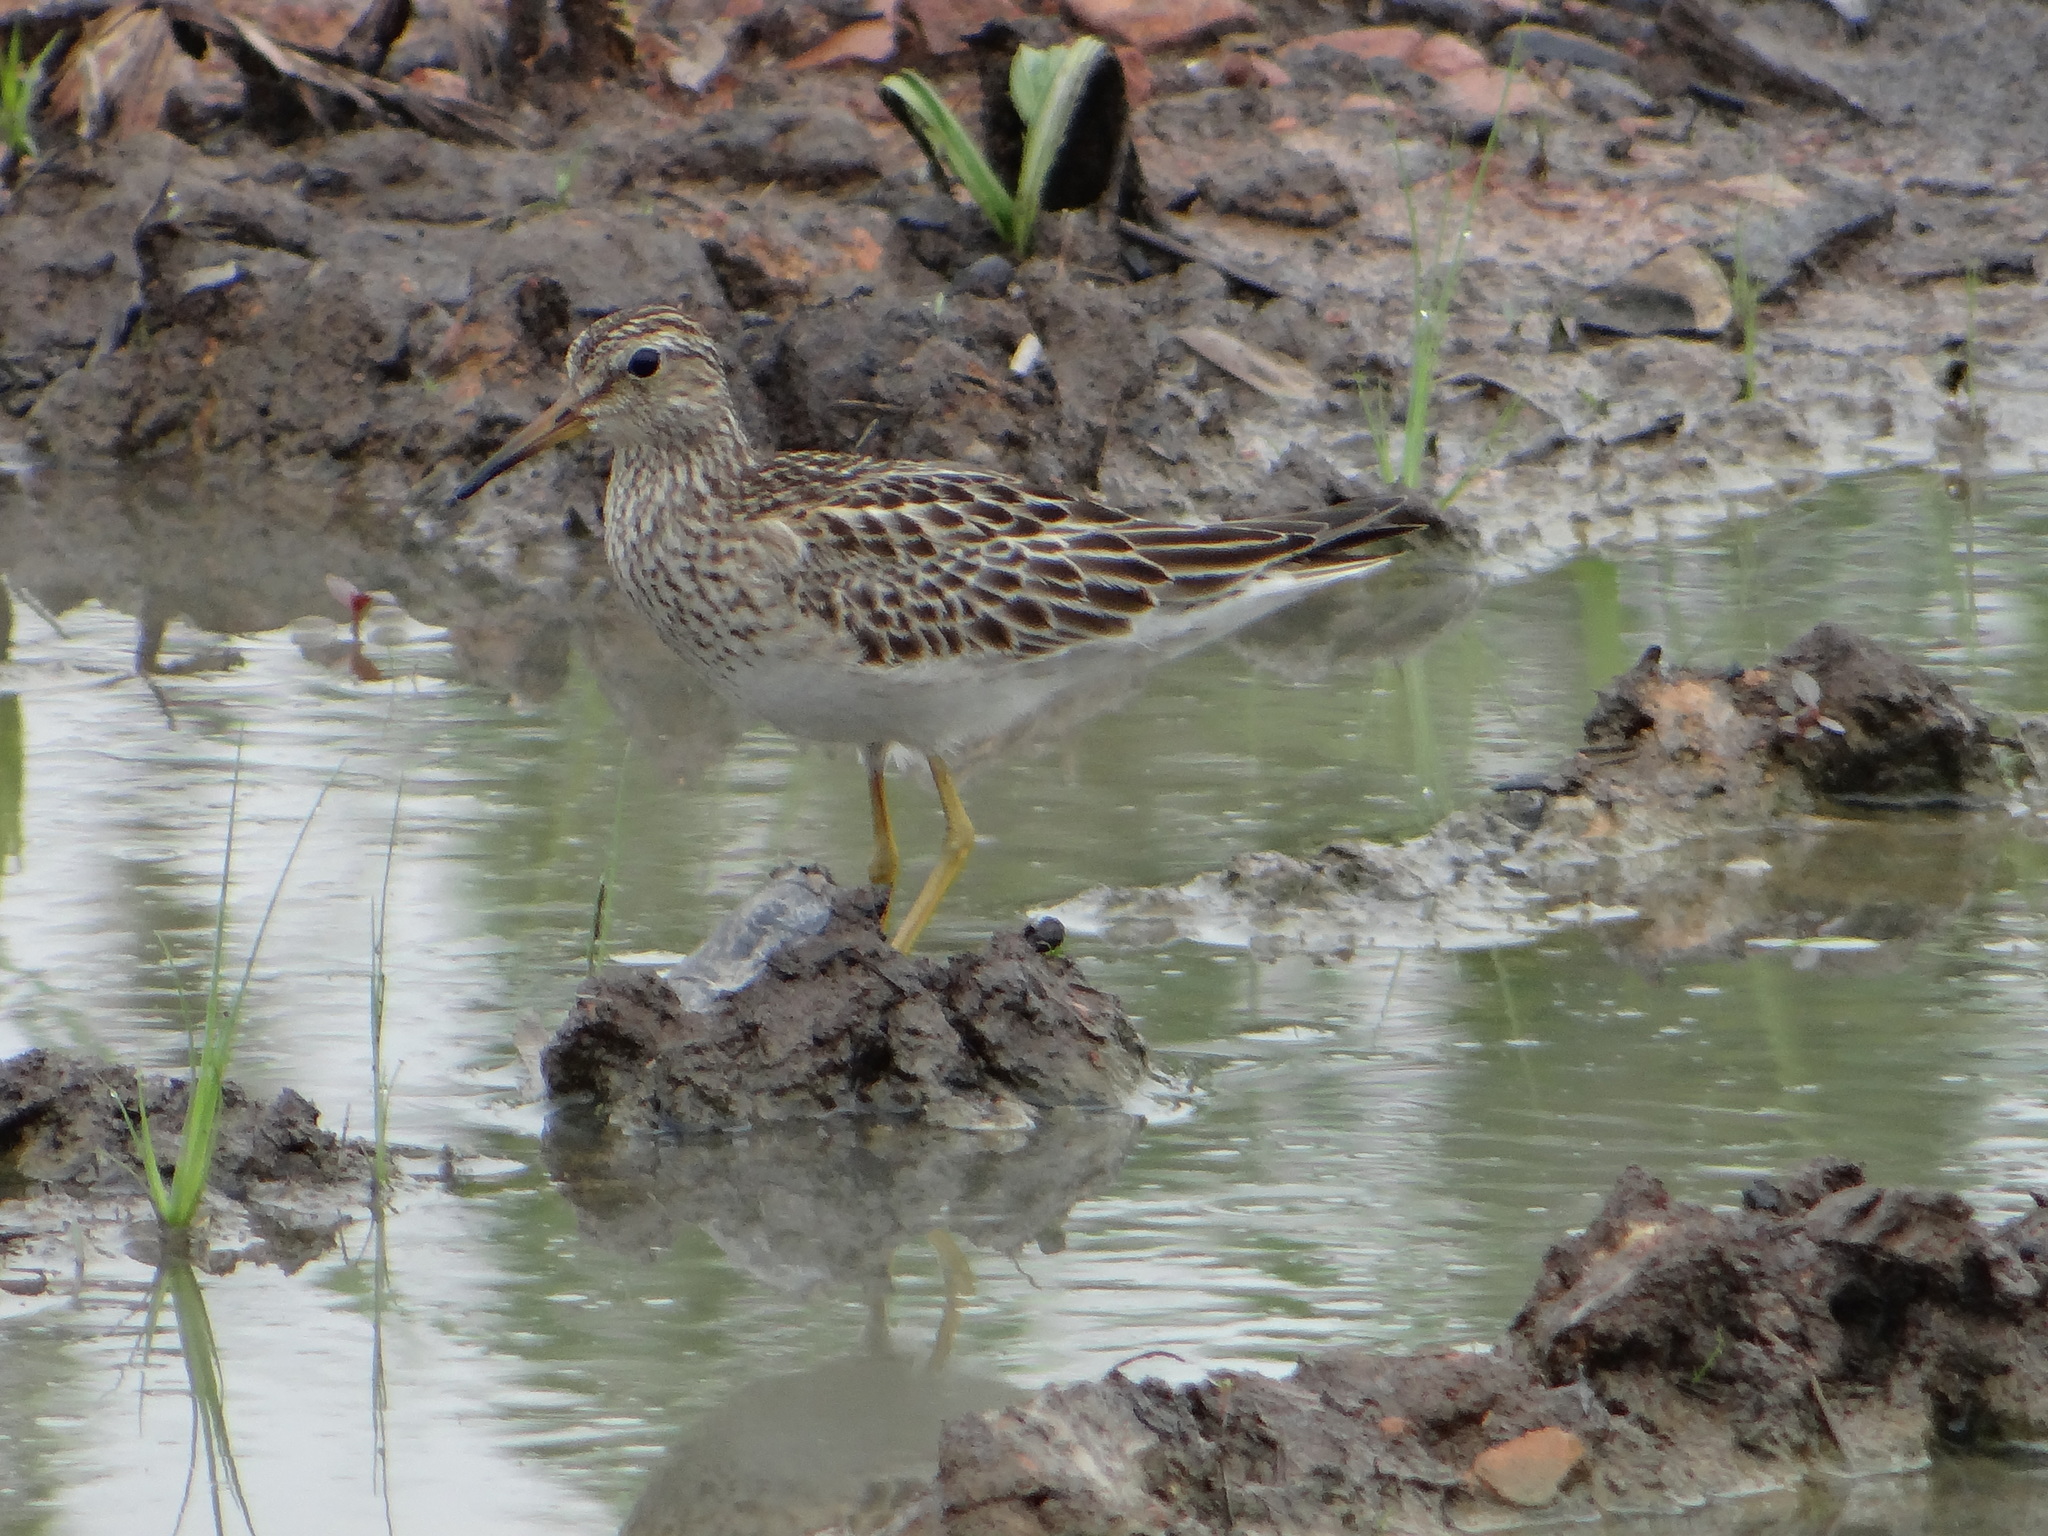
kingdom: Animalia
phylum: Chordata
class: Aves
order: Charadriiformes
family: Scolopacidae
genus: Calidris
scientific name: Calidris melanotos
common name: Pectoral sandpiper
